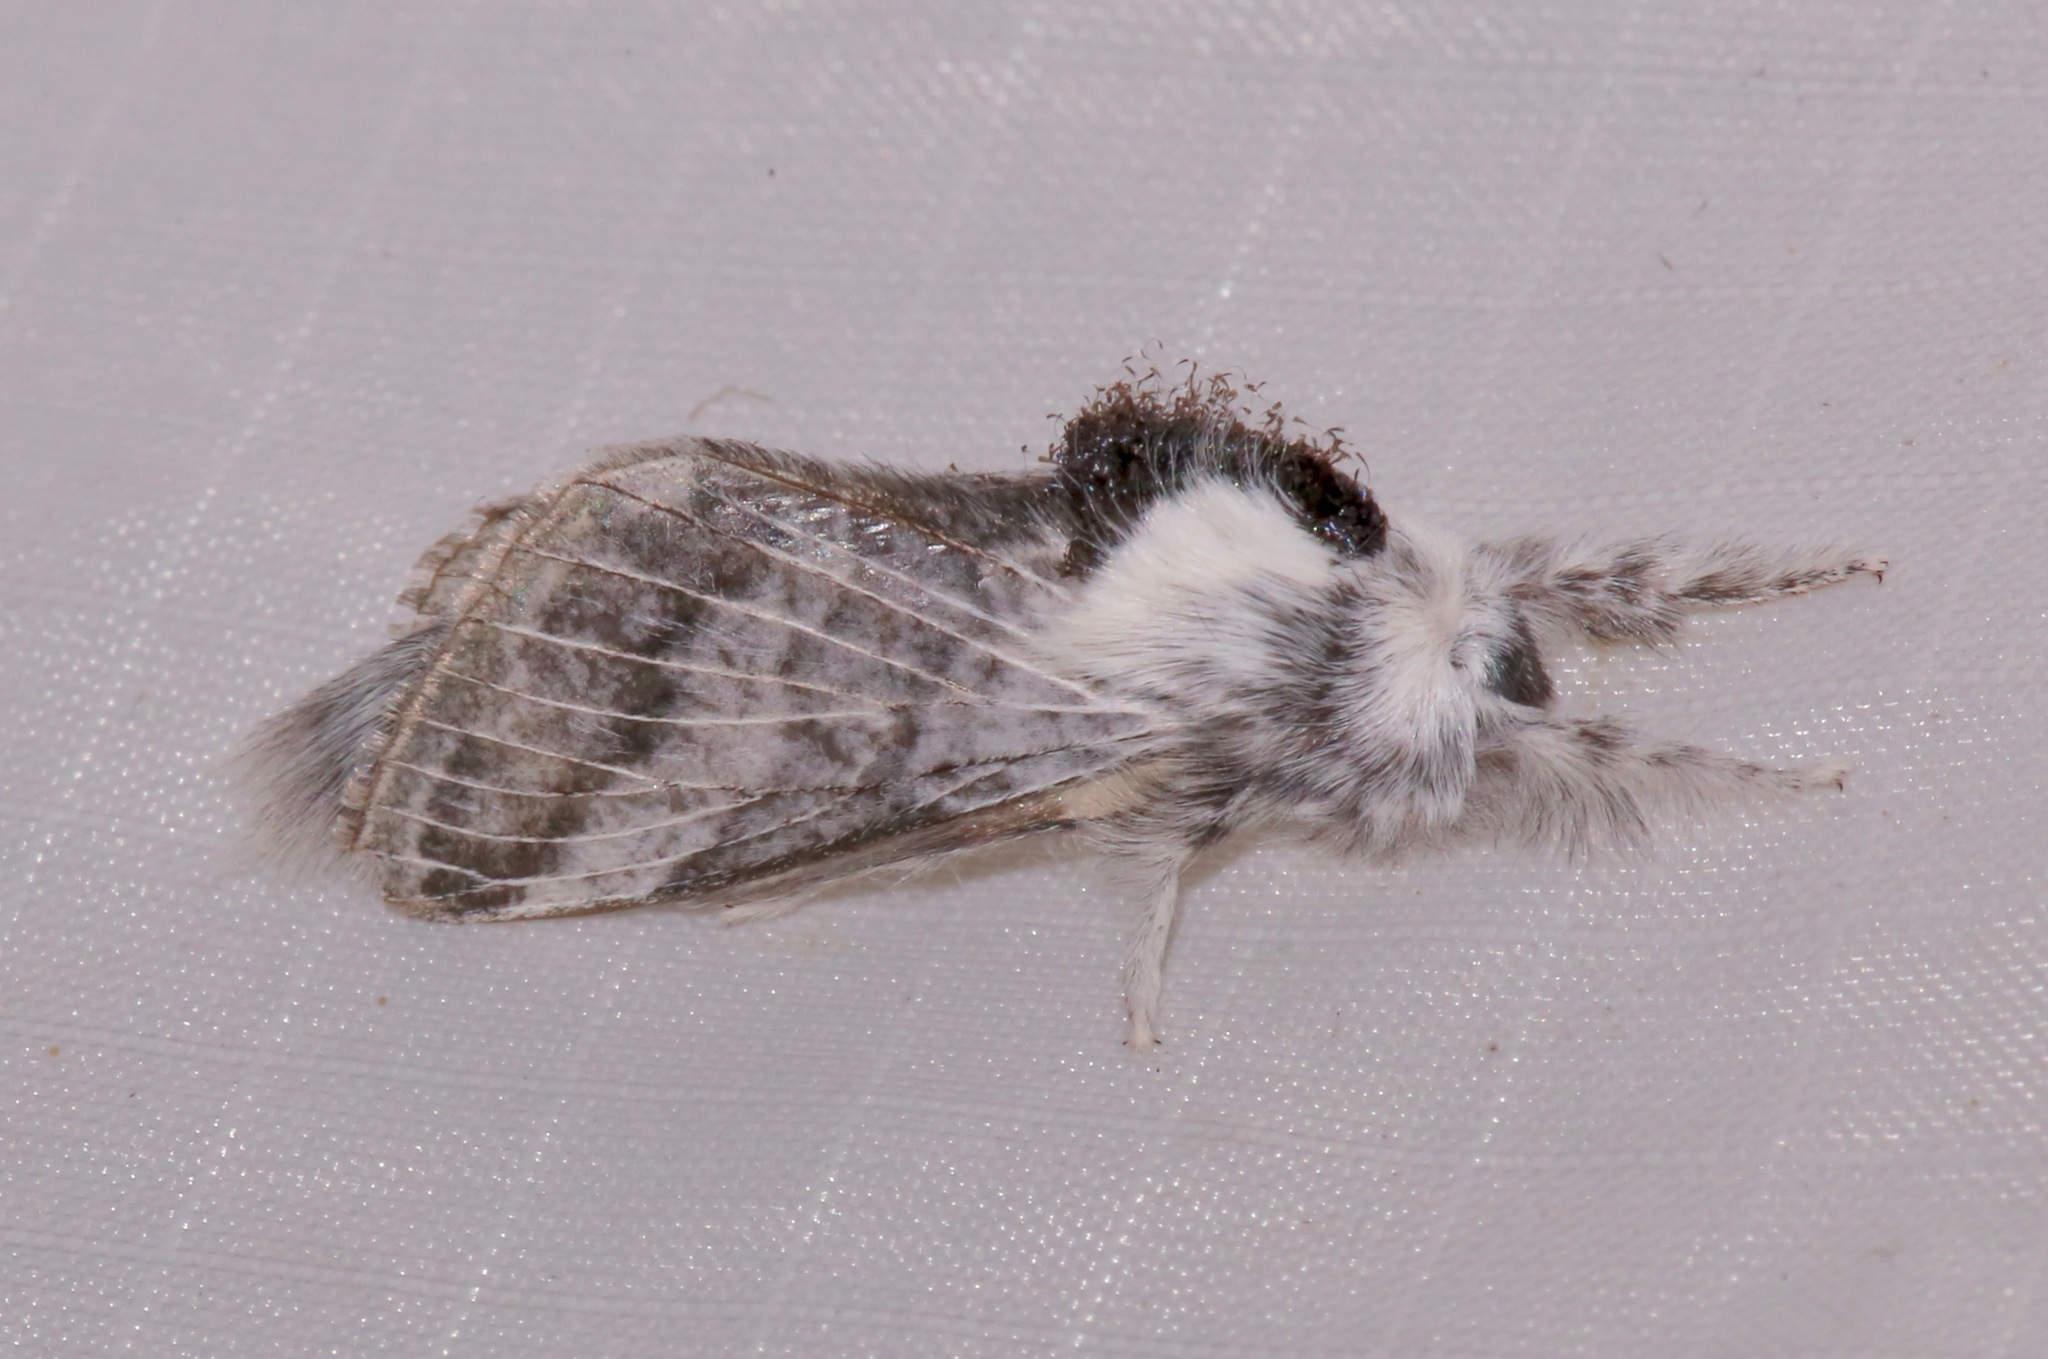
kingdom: Animalia
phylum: Arthropoda
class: Insecta
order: Lepidoptera
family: Lasiocampidae
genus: Tolype
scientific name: Tolype glenwoodi
